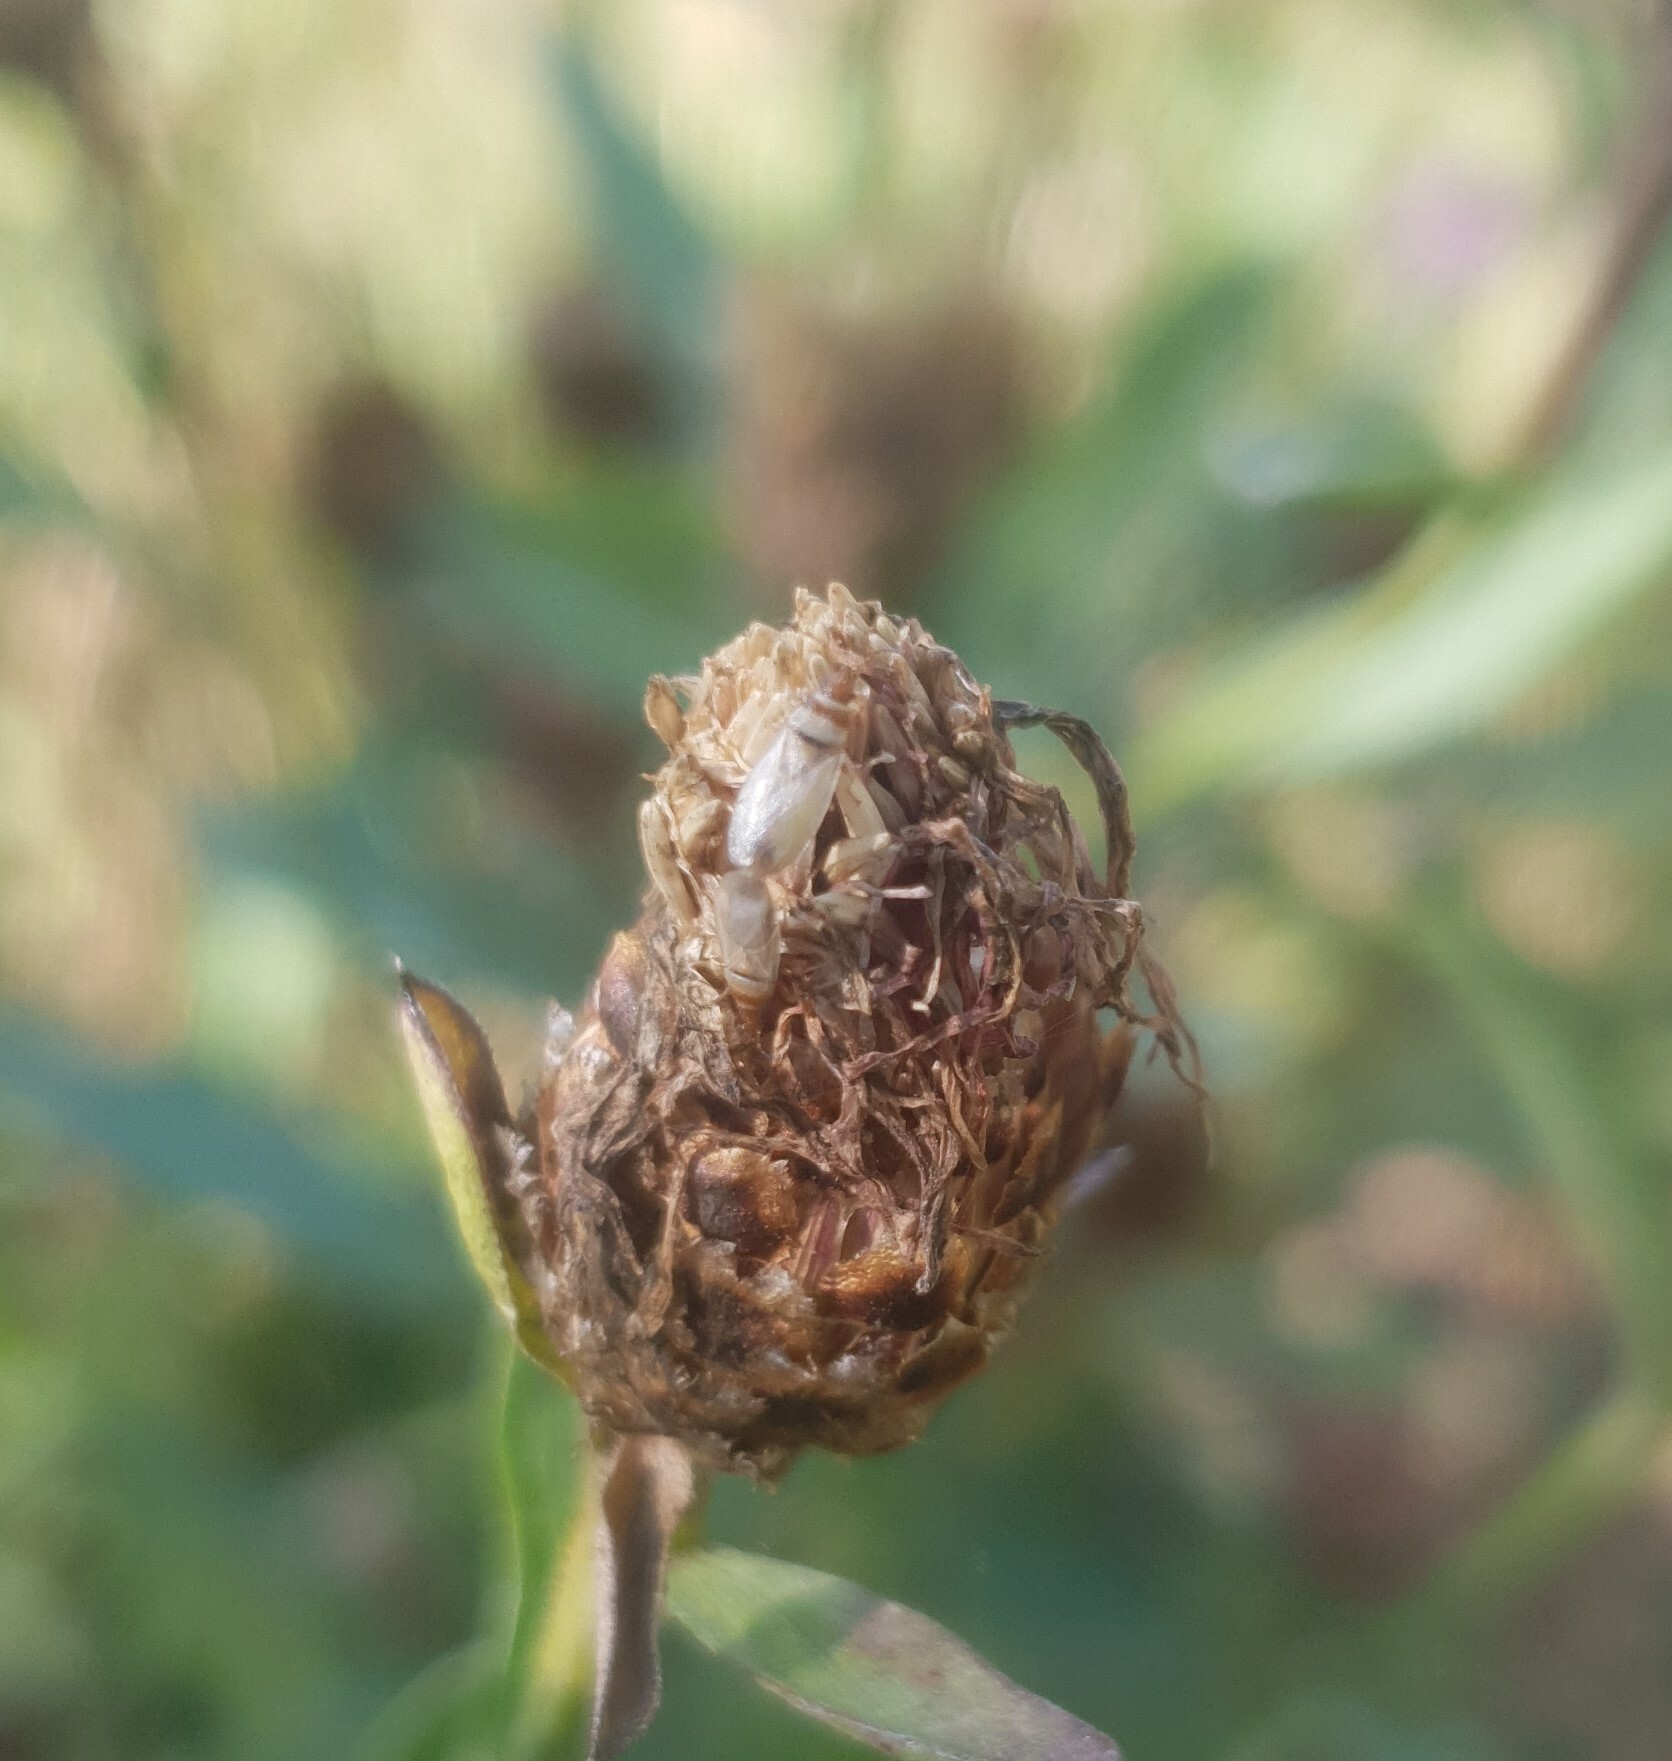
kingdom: Animalia
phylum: Arthropoda
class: Insecta
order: Hemiptera
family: Oxycarenidae
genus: Oxycarenus
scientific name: Oxycarenus pallens
